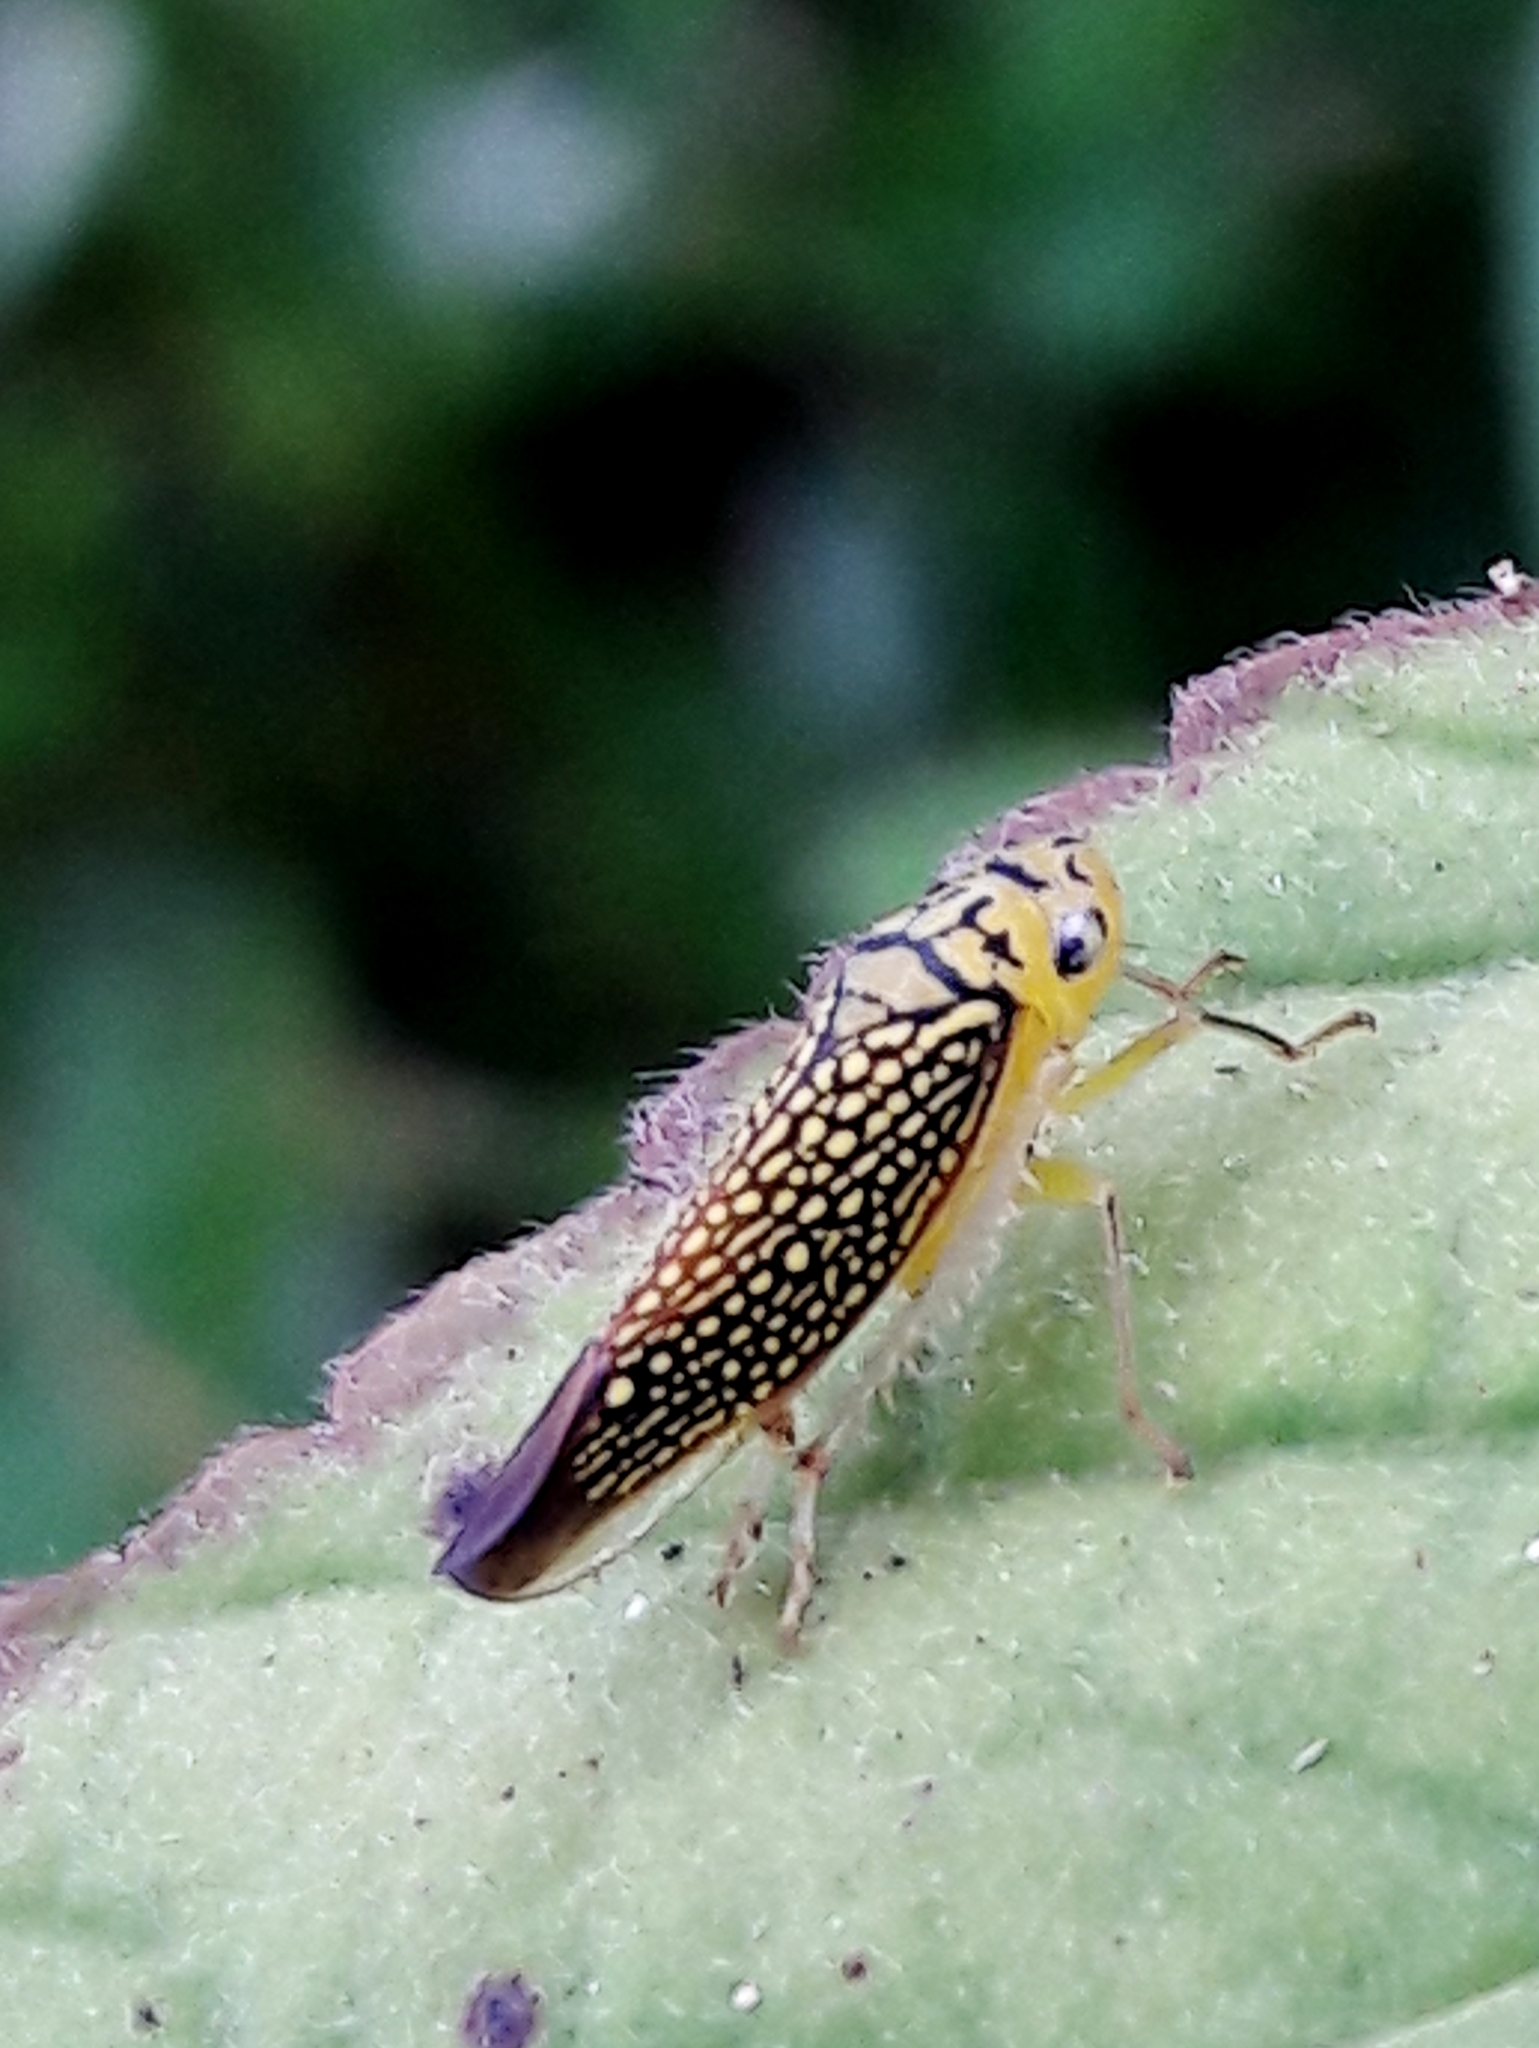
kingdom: Animalia
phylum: Arthropoda
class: Insecta
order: Hemiptera
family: Cicadellidae
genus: Parathona
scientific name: Parathona gratiosa
